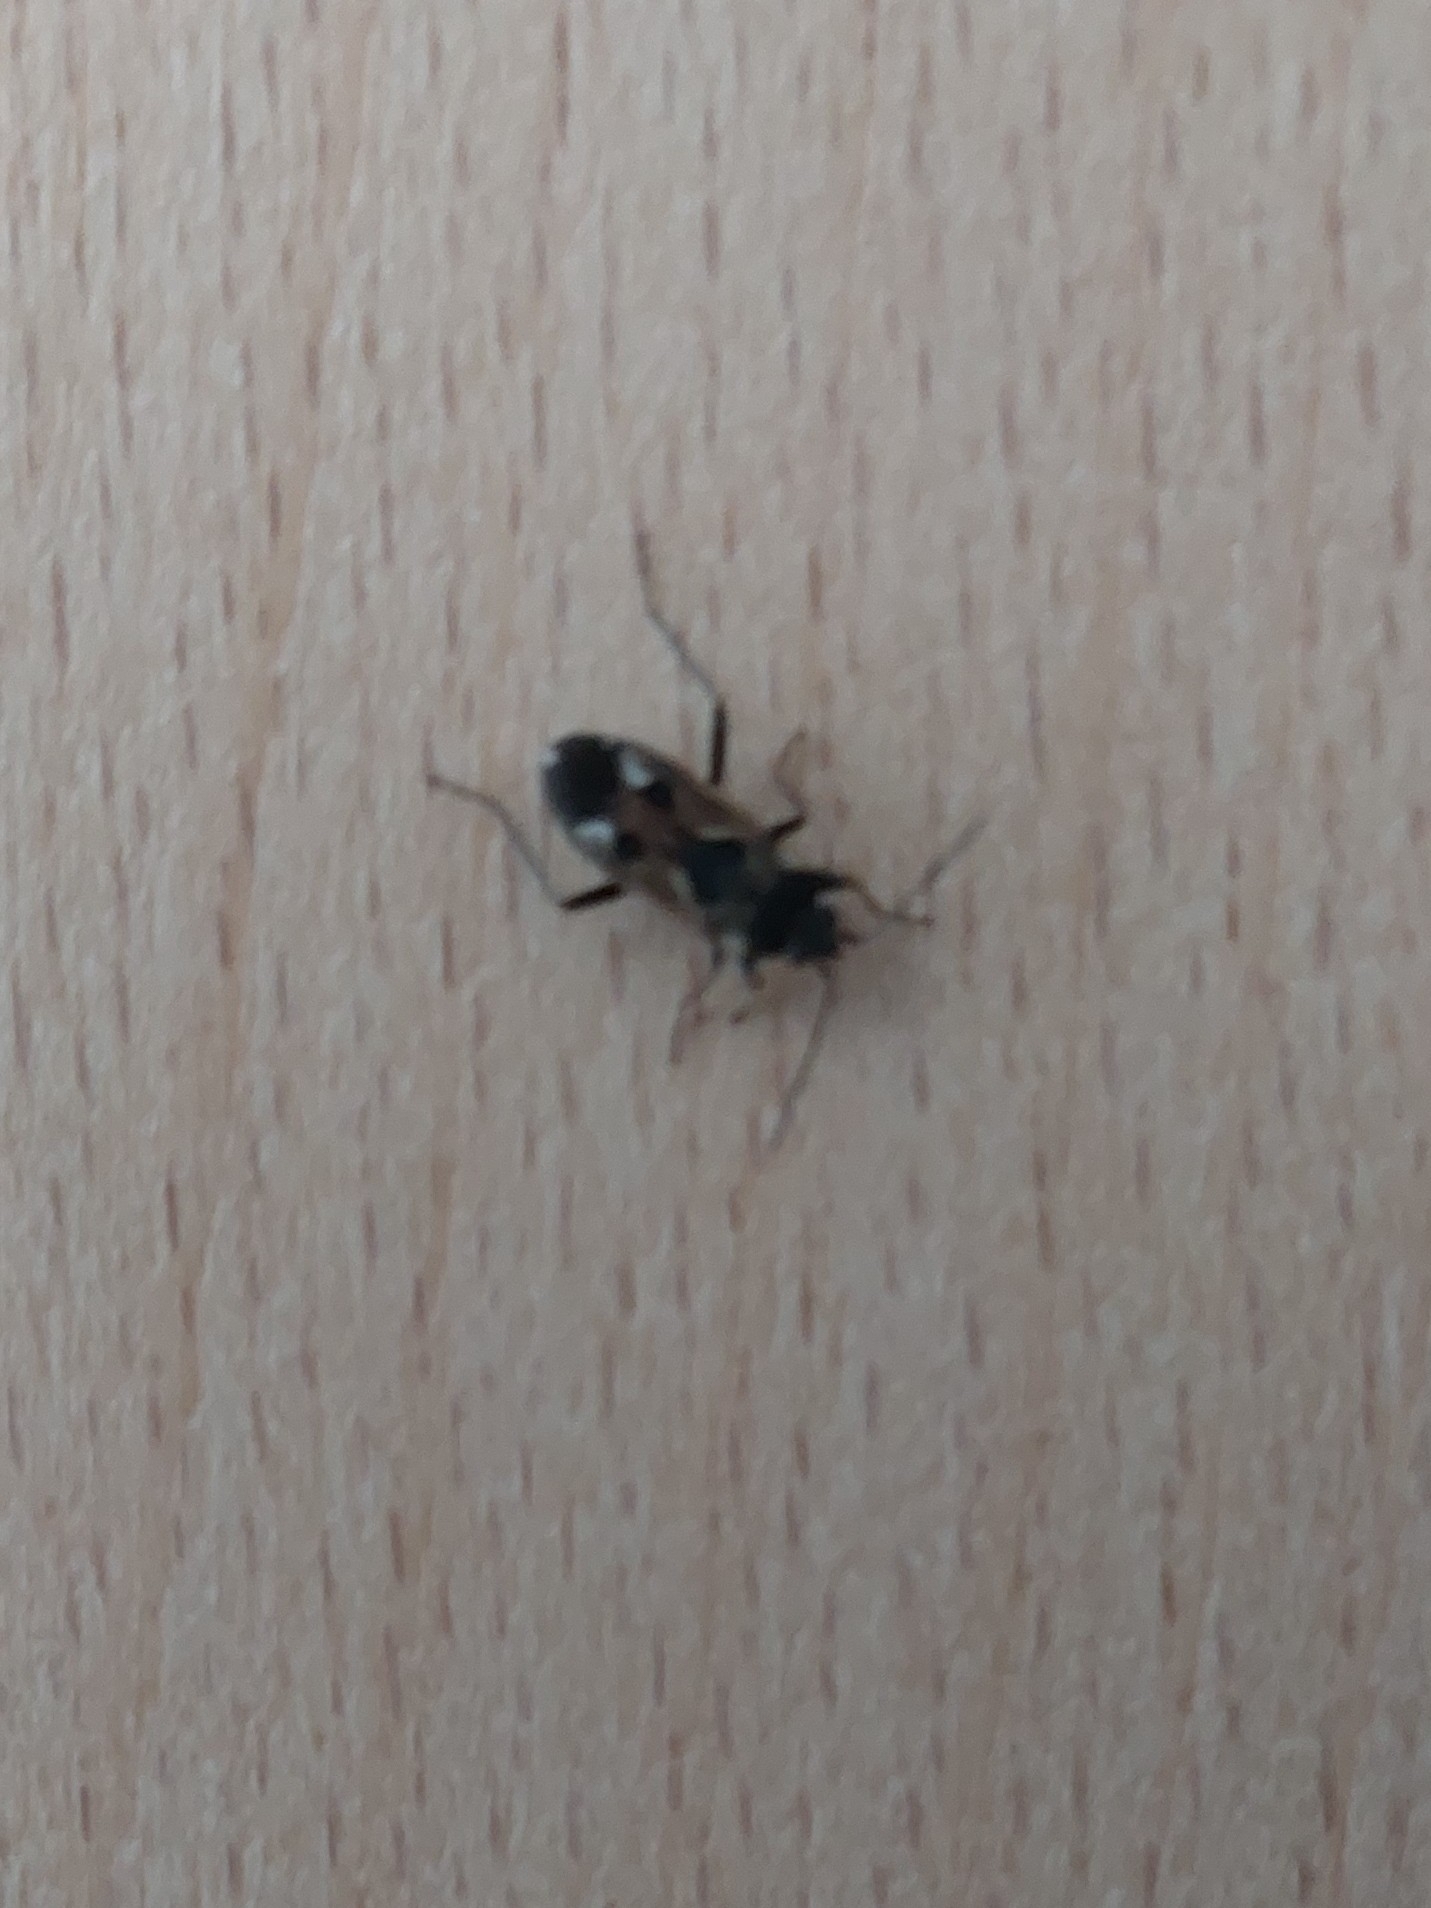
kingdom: Animalia
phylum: Arthropoda
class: Insecta
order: Hemiptera
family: Rhyparochromidae
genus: Rhyparochromus
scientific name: Rhyparochromus vulgaris
